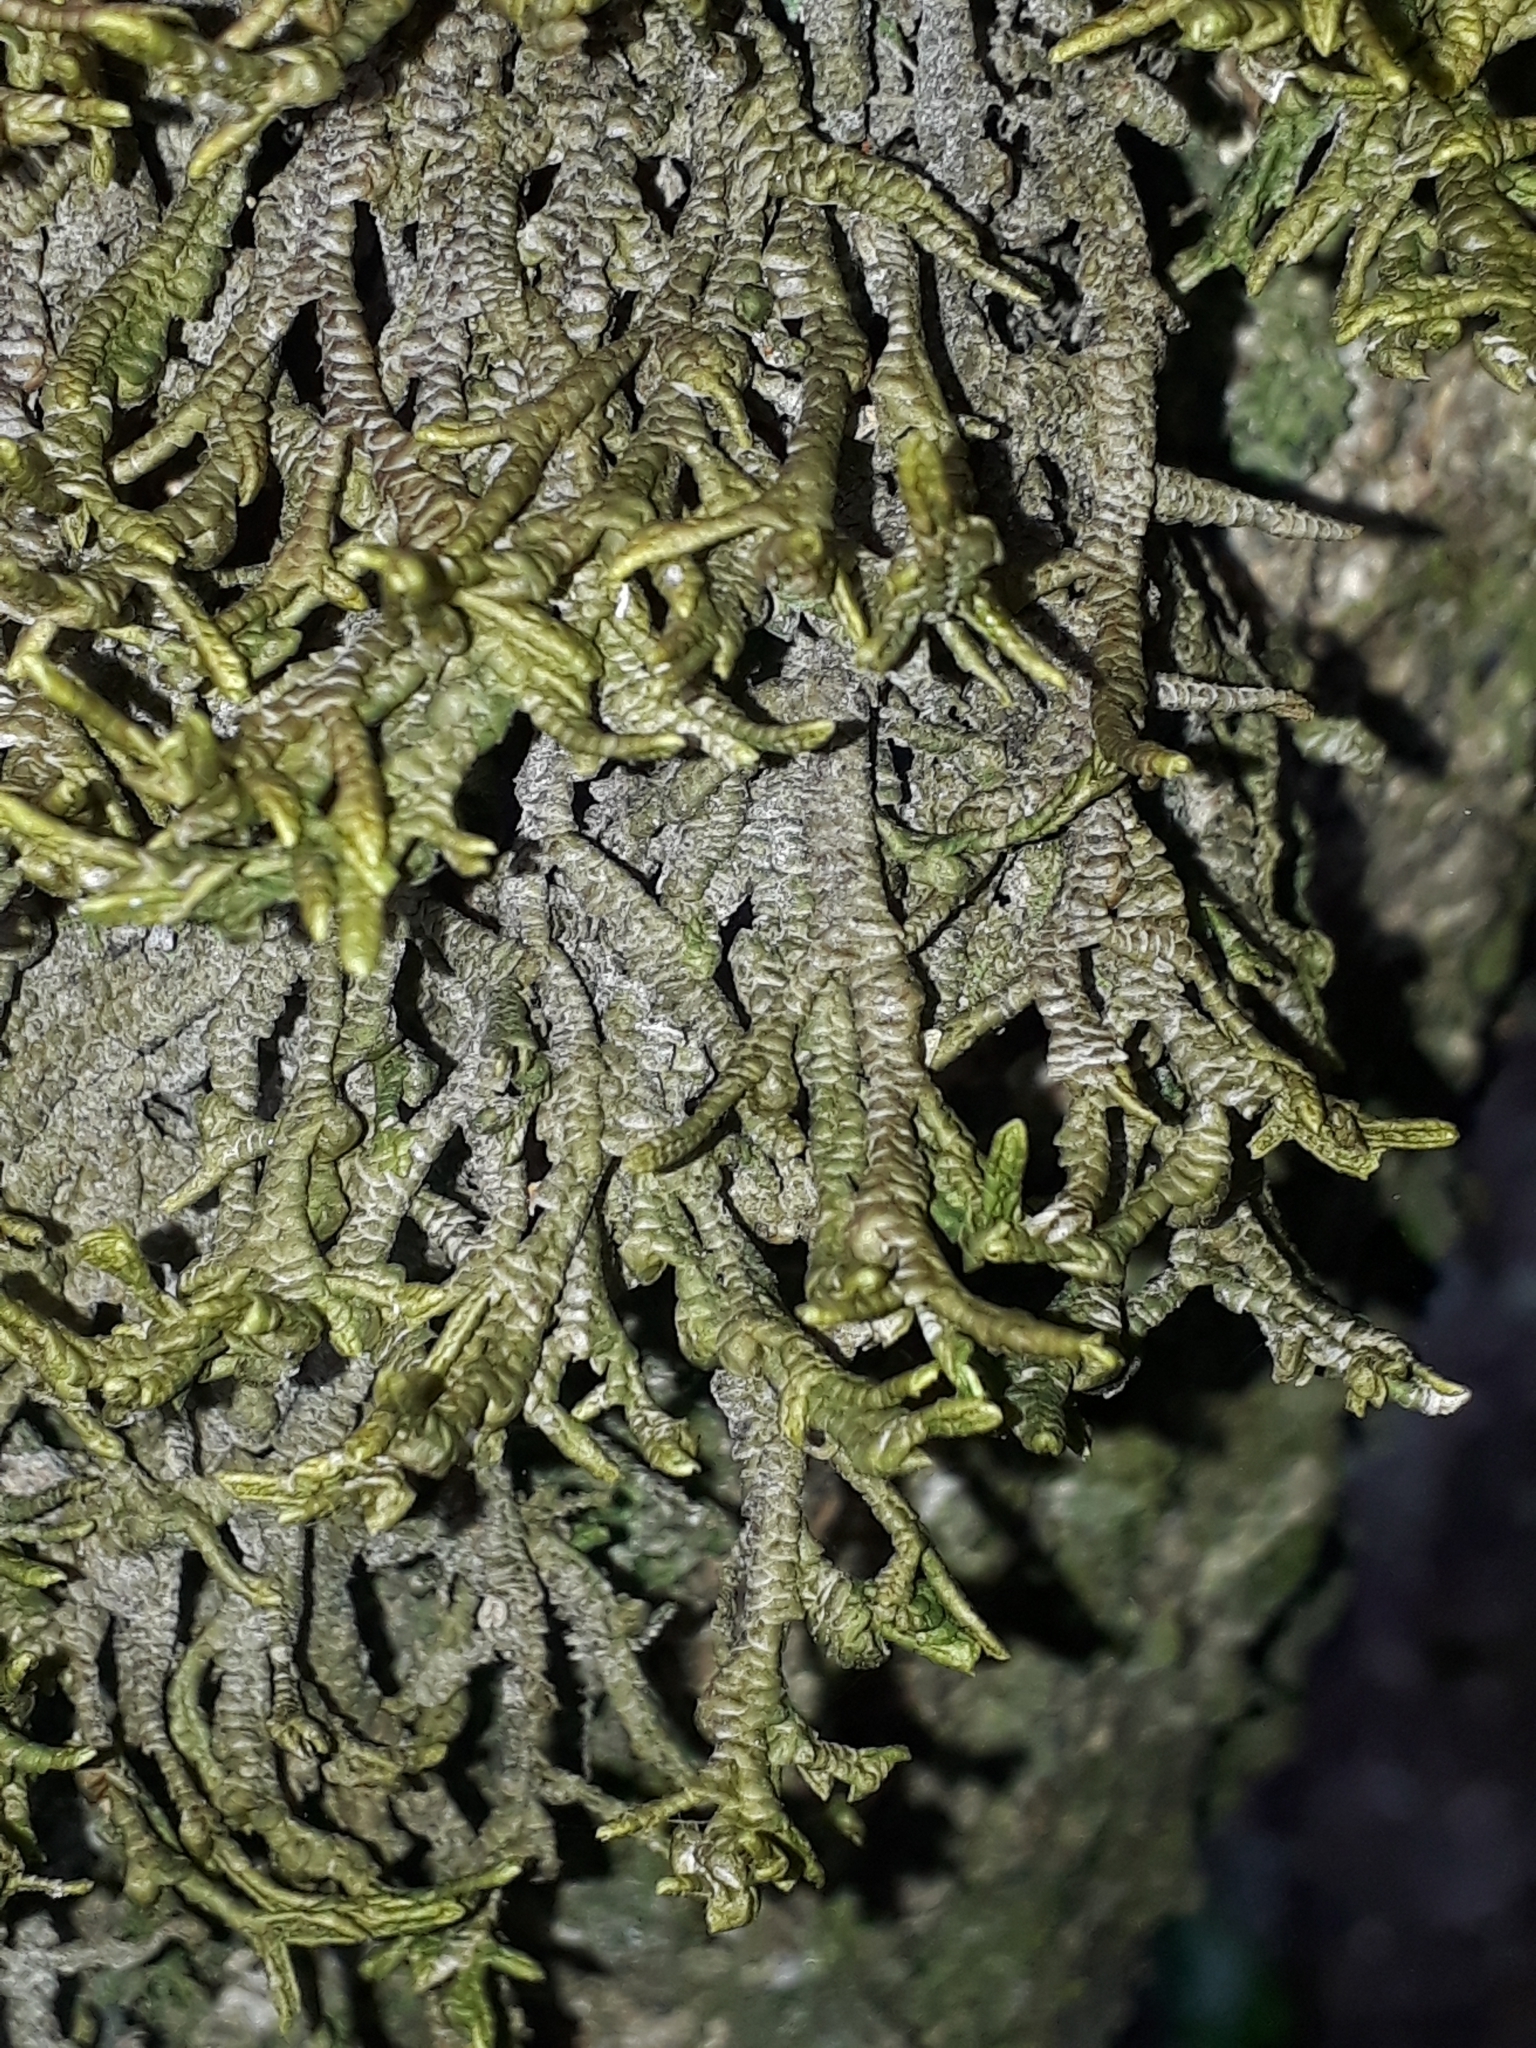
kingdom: Plantae
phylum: Marchantiophyta
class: Jungermanniopsida
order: Porellales
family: Porellaceae
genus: Porella
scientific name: Porella elegantula
